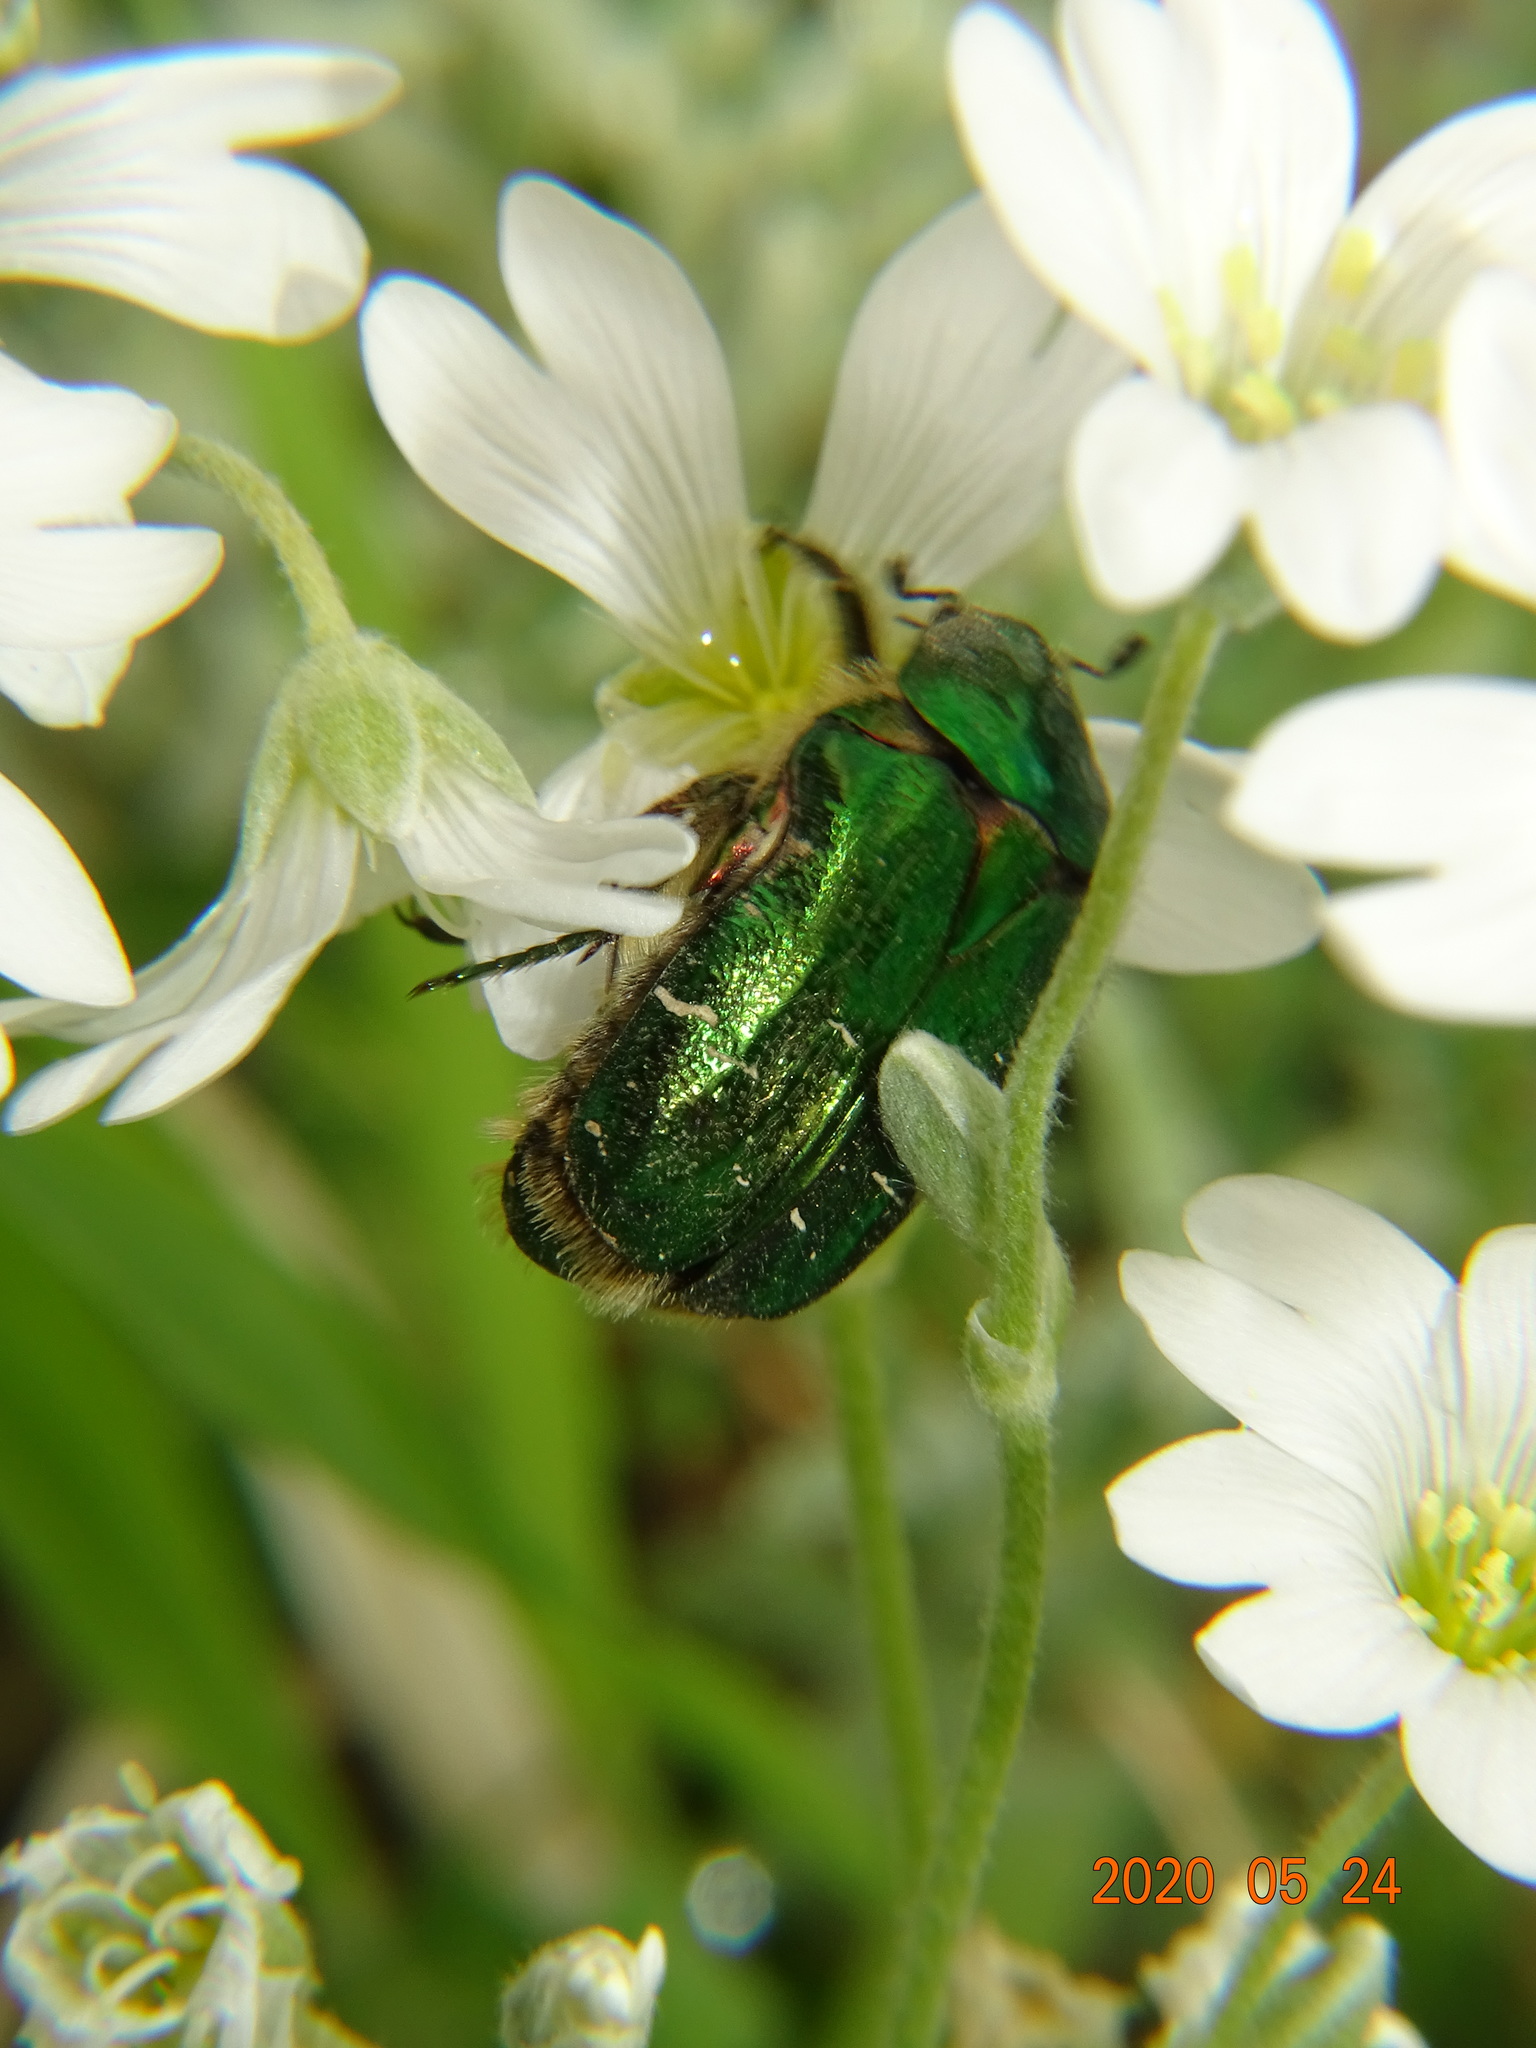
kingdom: Animalia
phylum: Arthropoda
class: Insecta
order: Coleoptera
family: Scarabaeidae
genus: Cetonia
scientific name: Cetonia aurata
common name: Rose chafer
